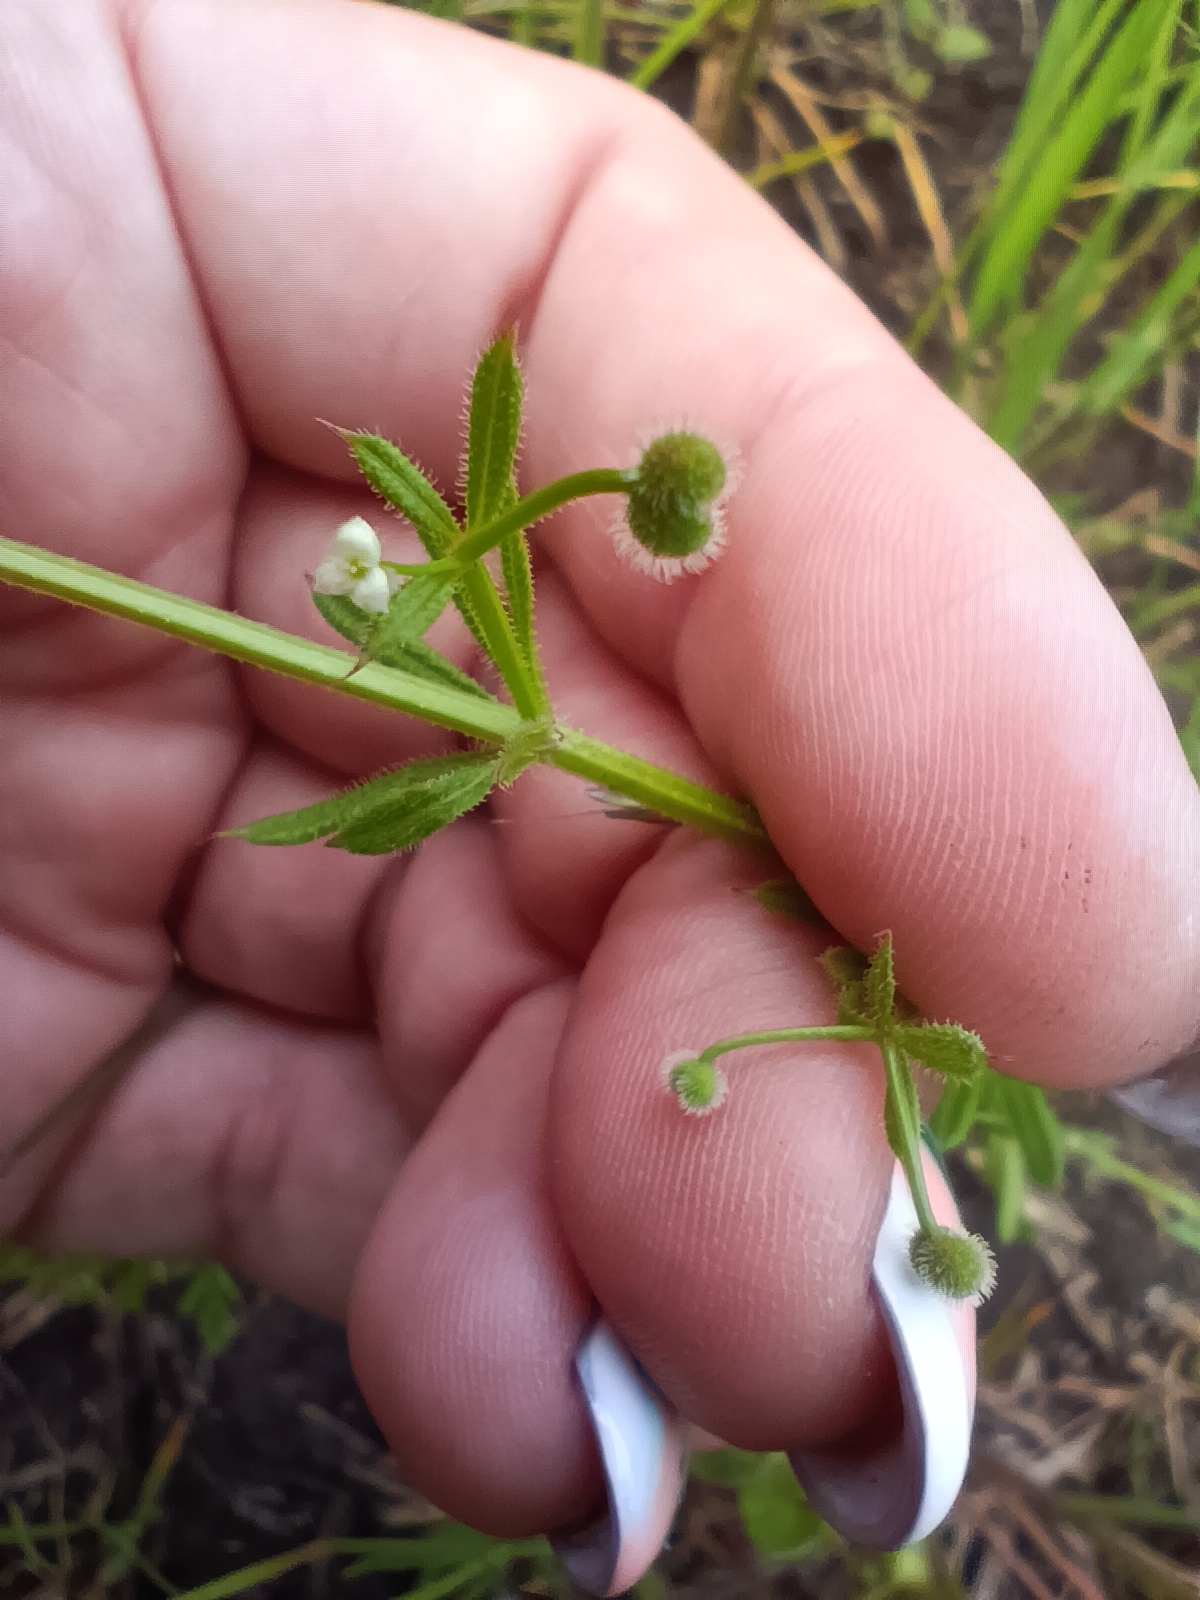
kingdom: Plantae
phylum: Tracheophyta
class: Magnoliopsida
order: Gentianales
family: Rubiaceae
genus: Galium
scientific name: Galium aparine
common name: Cleavers
